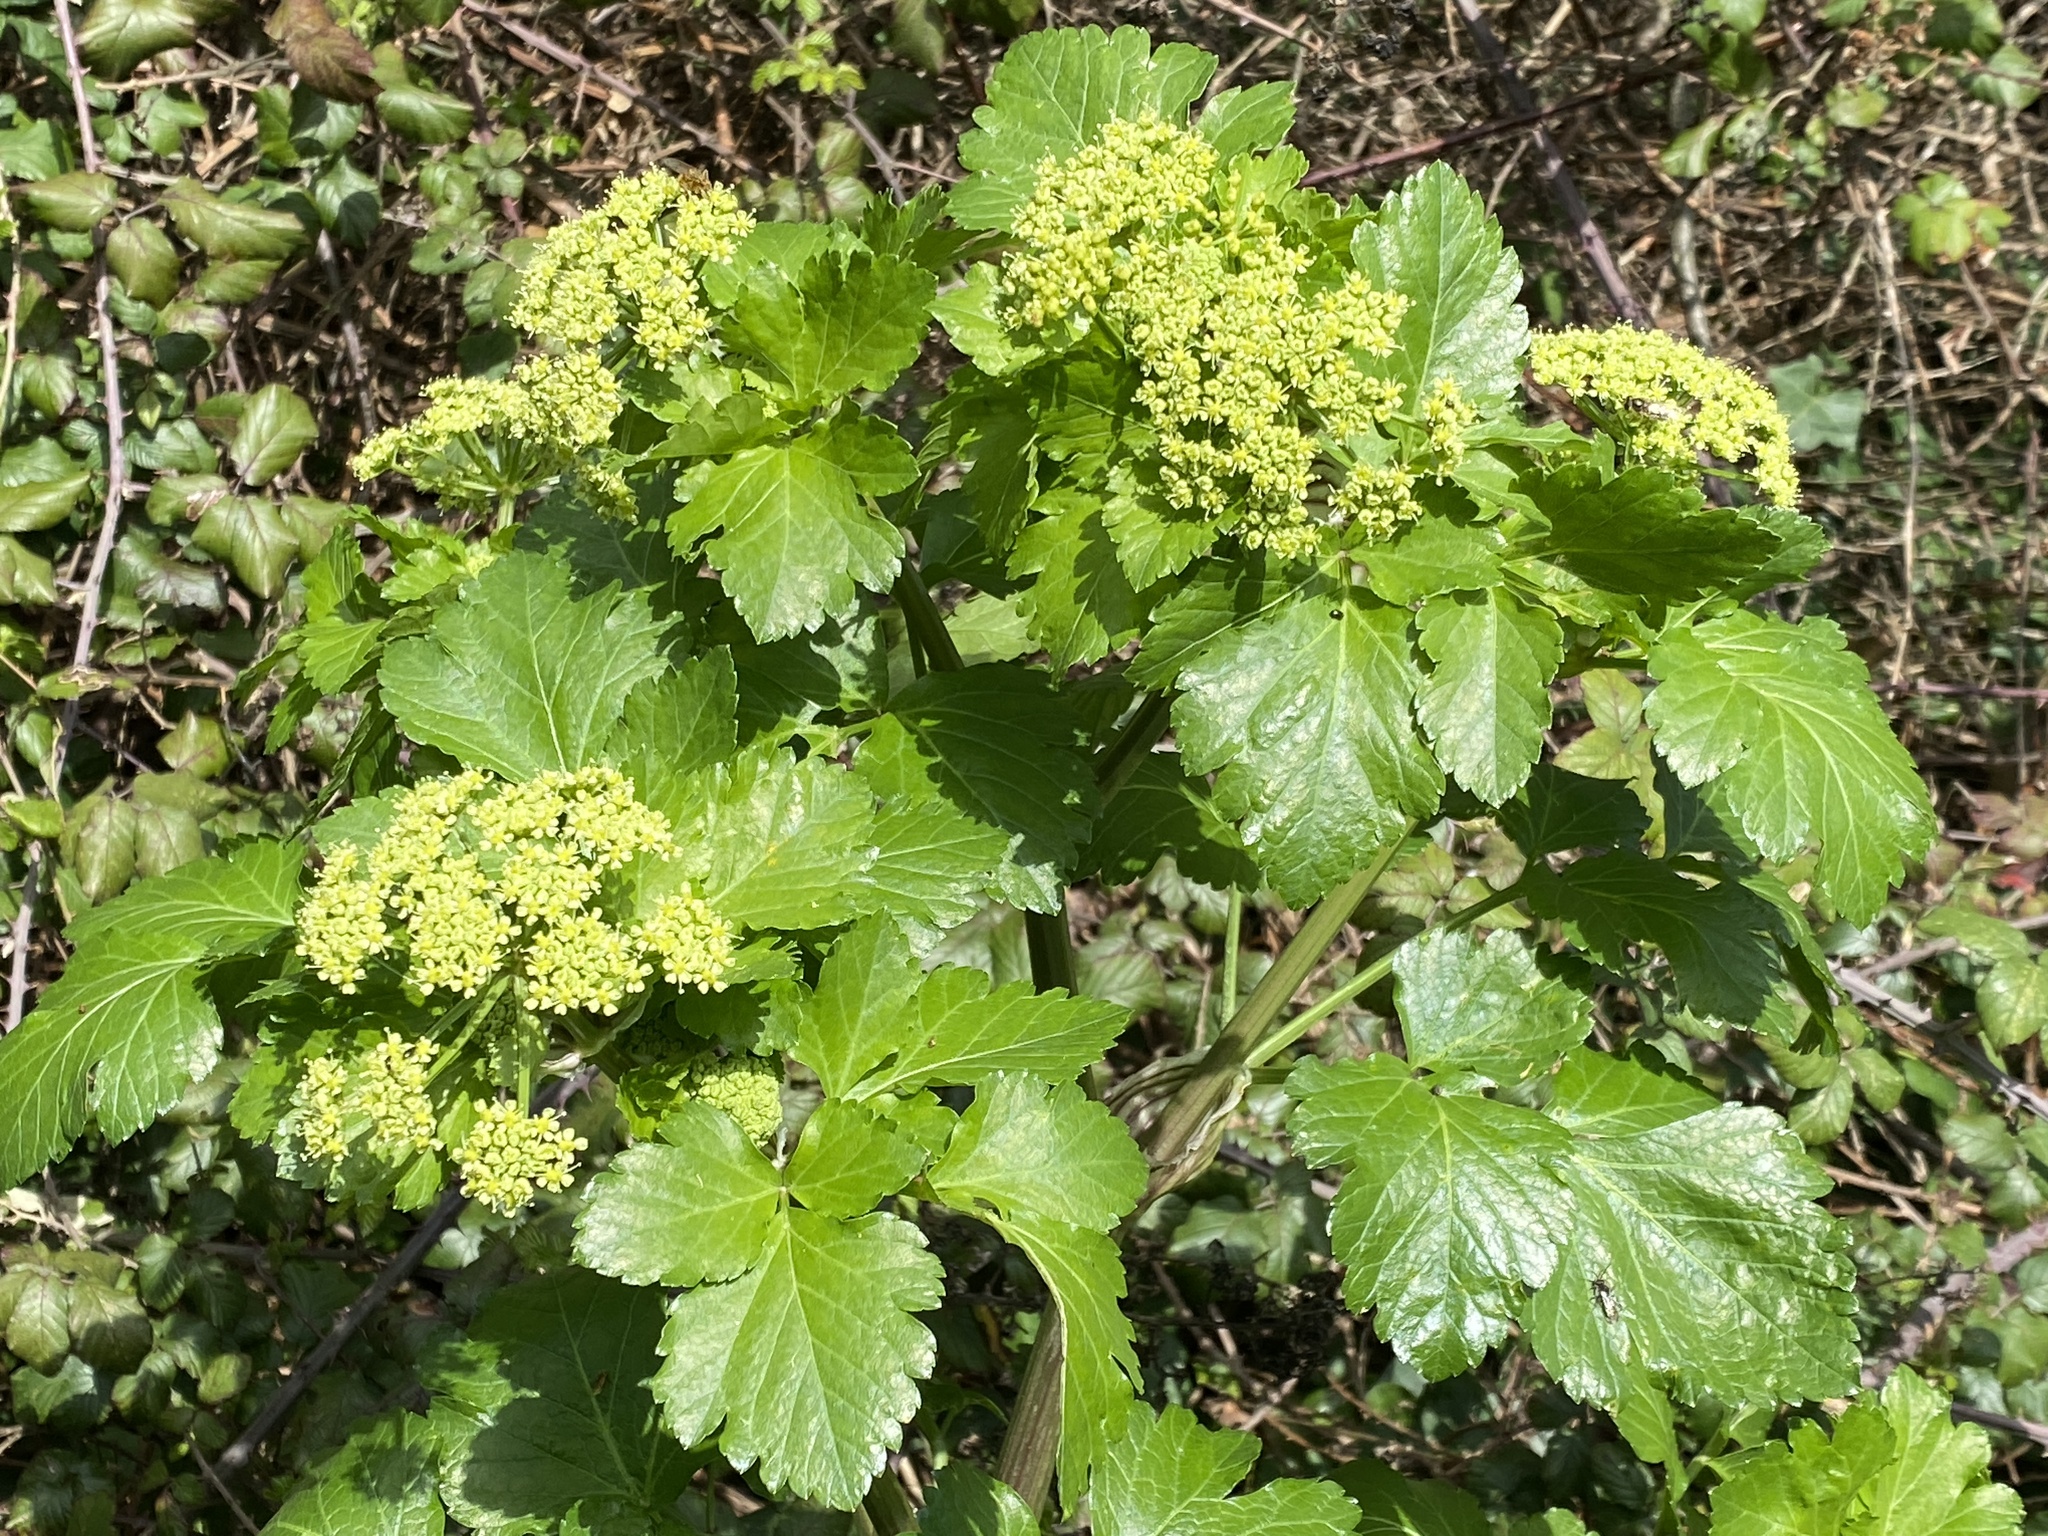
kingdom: Plantae
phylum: Tracheophyta
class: Magnoliopsida
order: Apiales
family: Apiaceae
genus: Smyrnium
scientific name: Smyrnium olusatrum
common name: Alexanders
